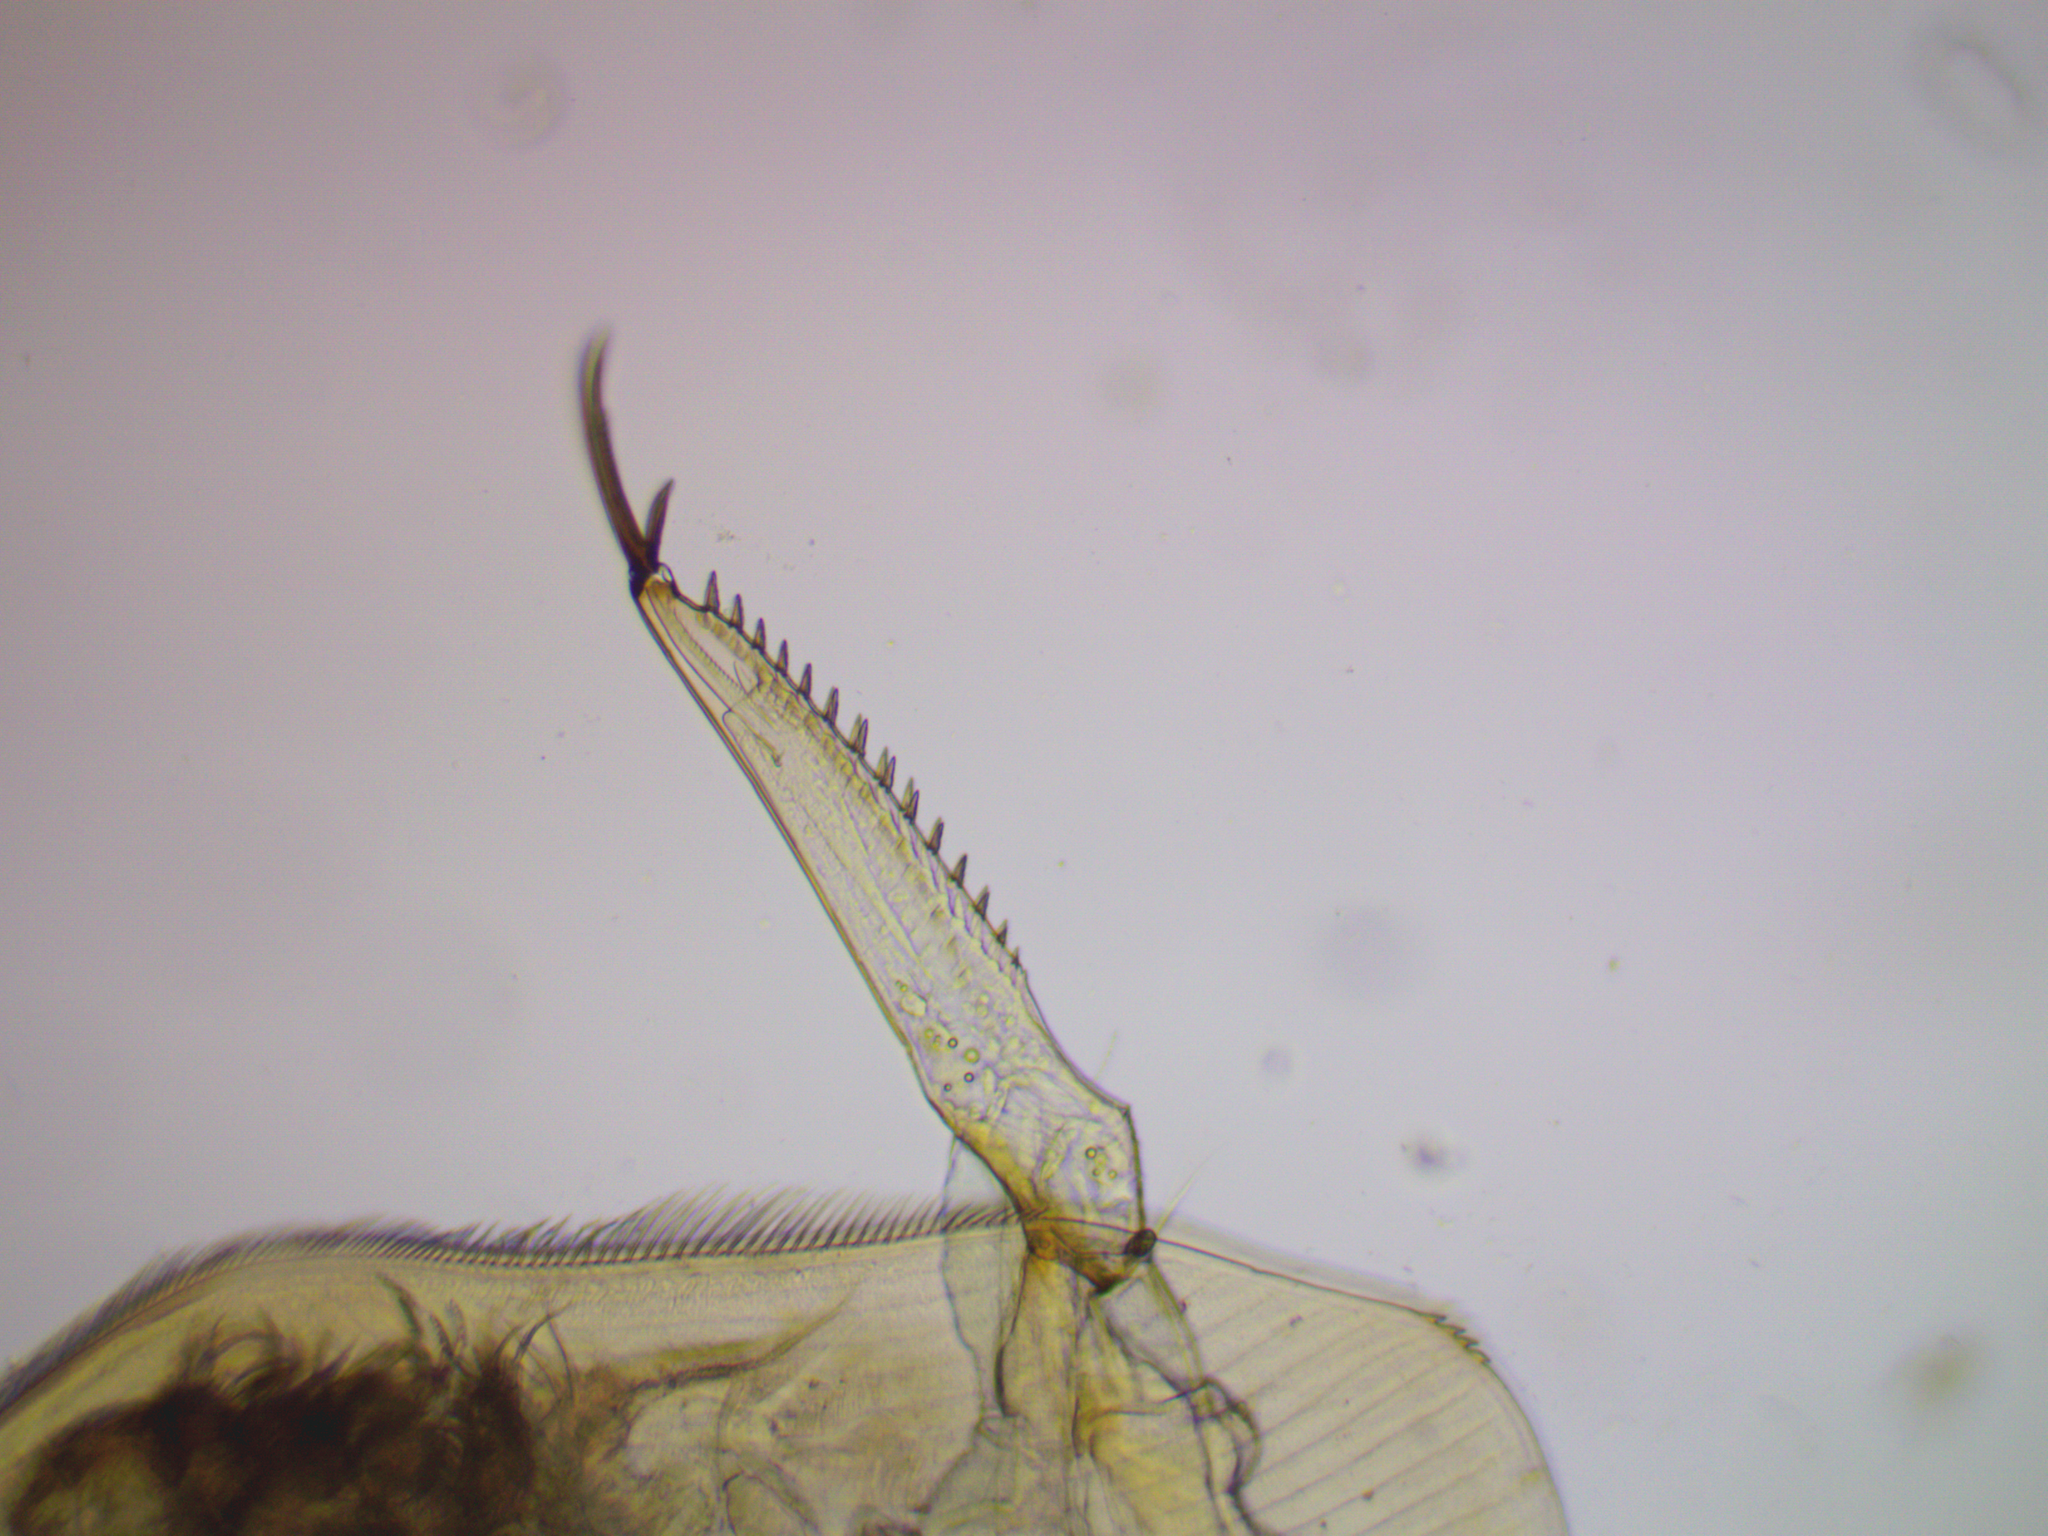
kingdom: Animalia
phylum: Arthropoda
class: Branchiopoda
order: Diplostraca
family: Chydoridae
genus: Camptocercus
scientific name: Camptocercus rectirostris
